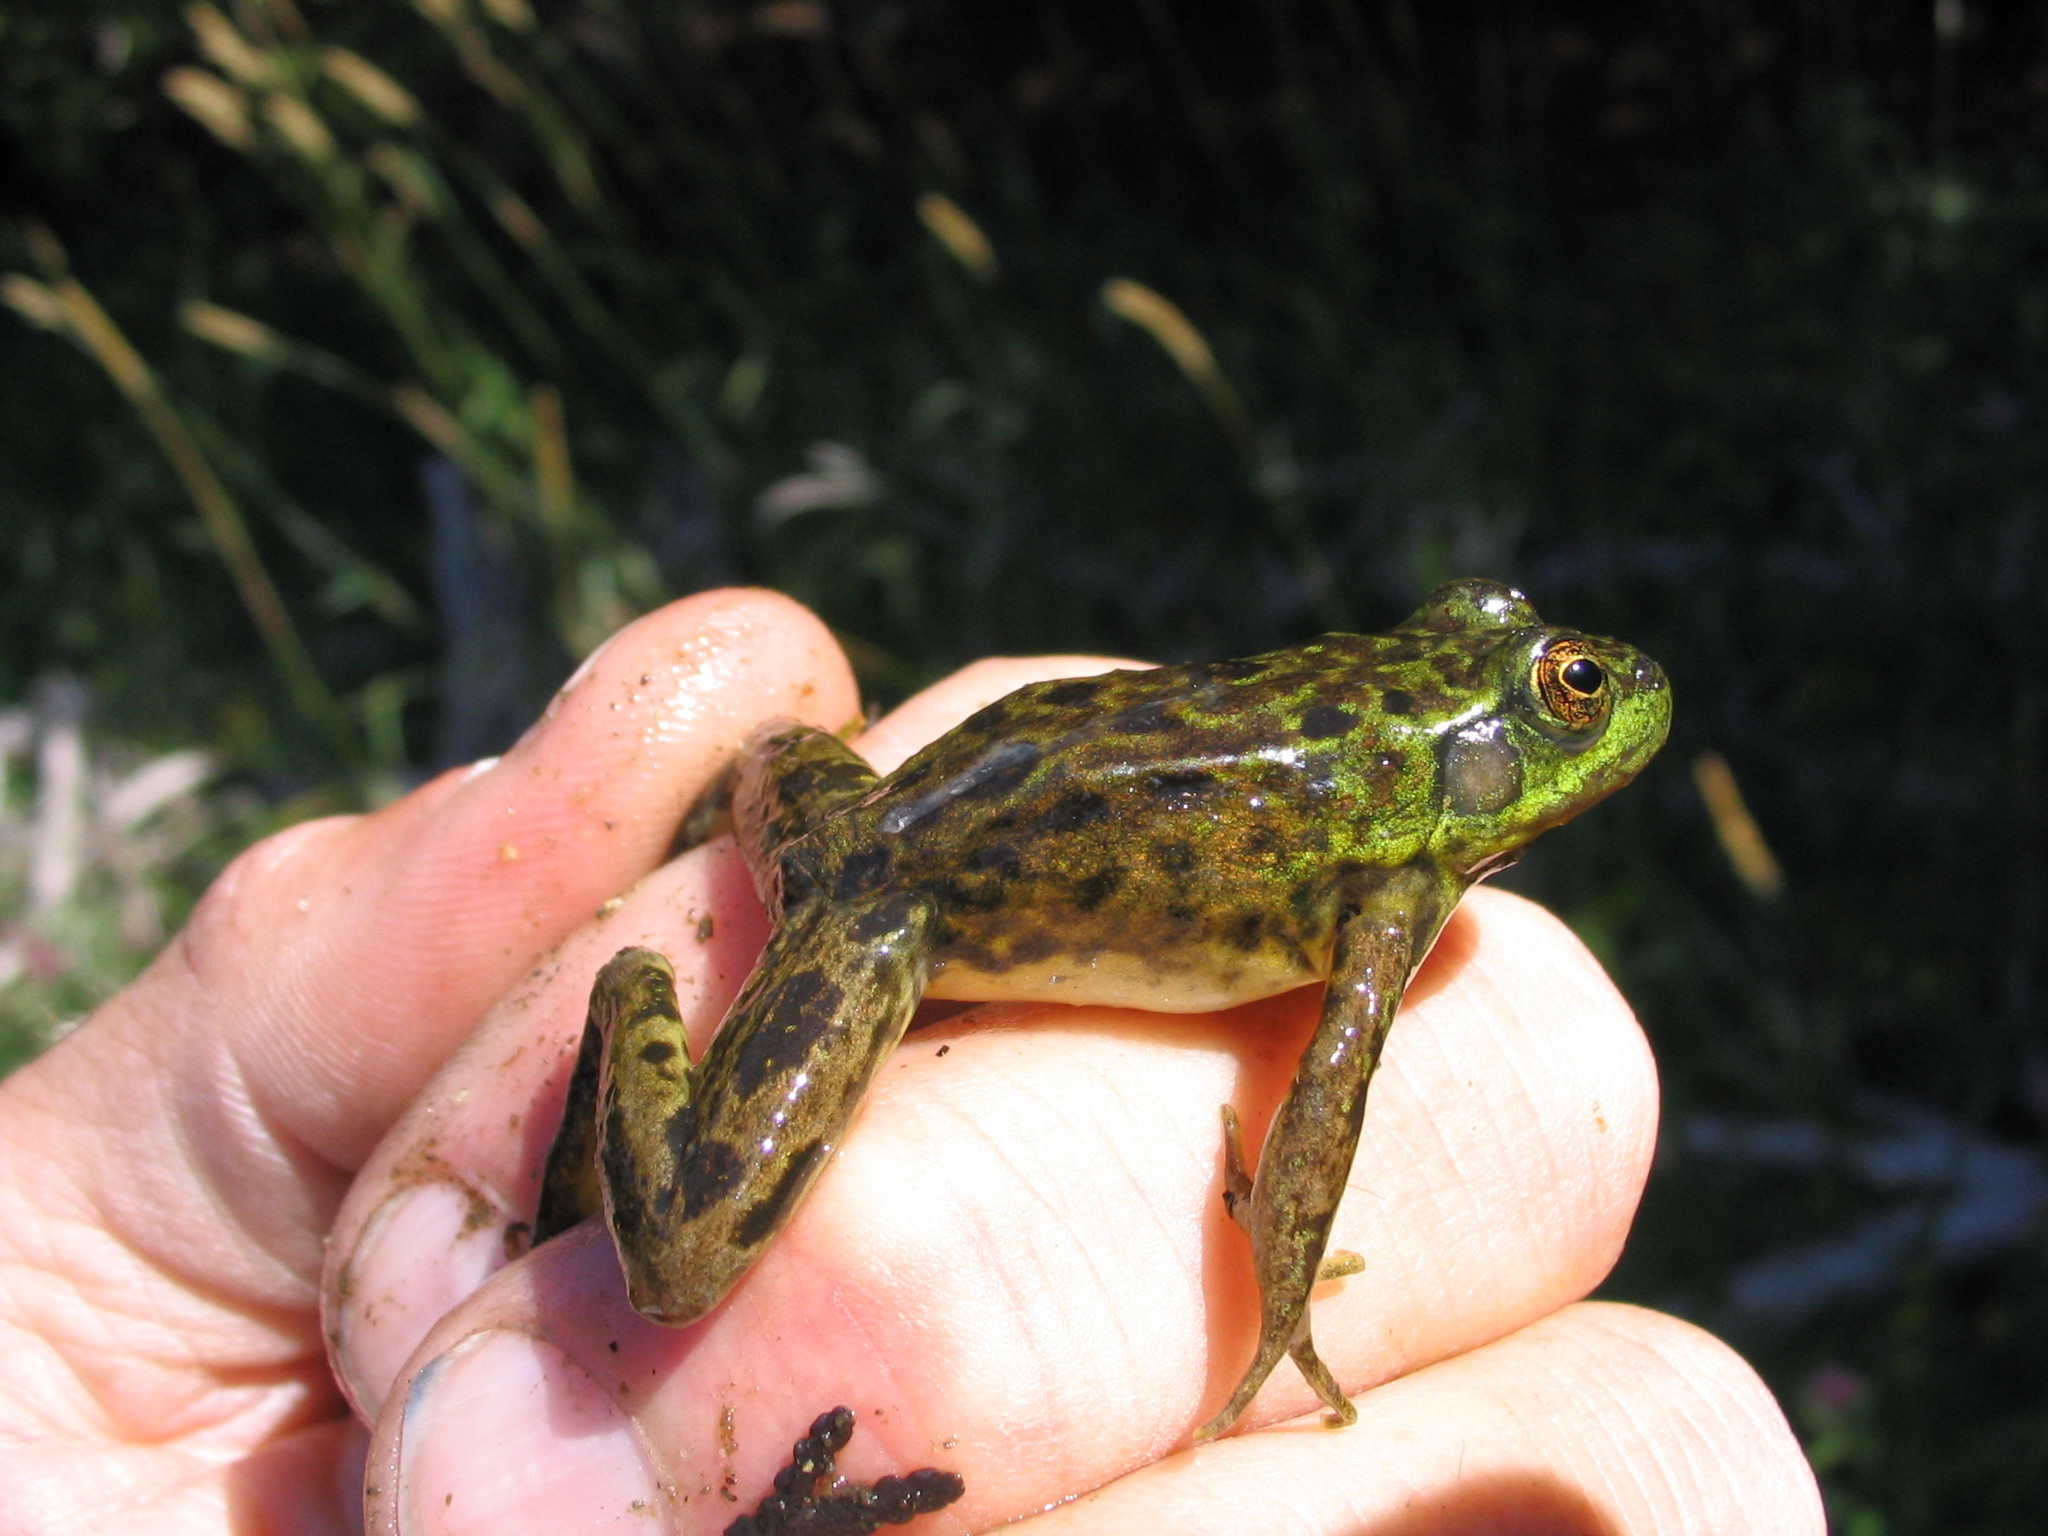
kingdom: Animalia
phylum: Chordata
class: Amphibia
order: Anura
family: Ranidae
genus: Lithobates
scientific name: Lithobates septentrionalis
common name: Mink frog
